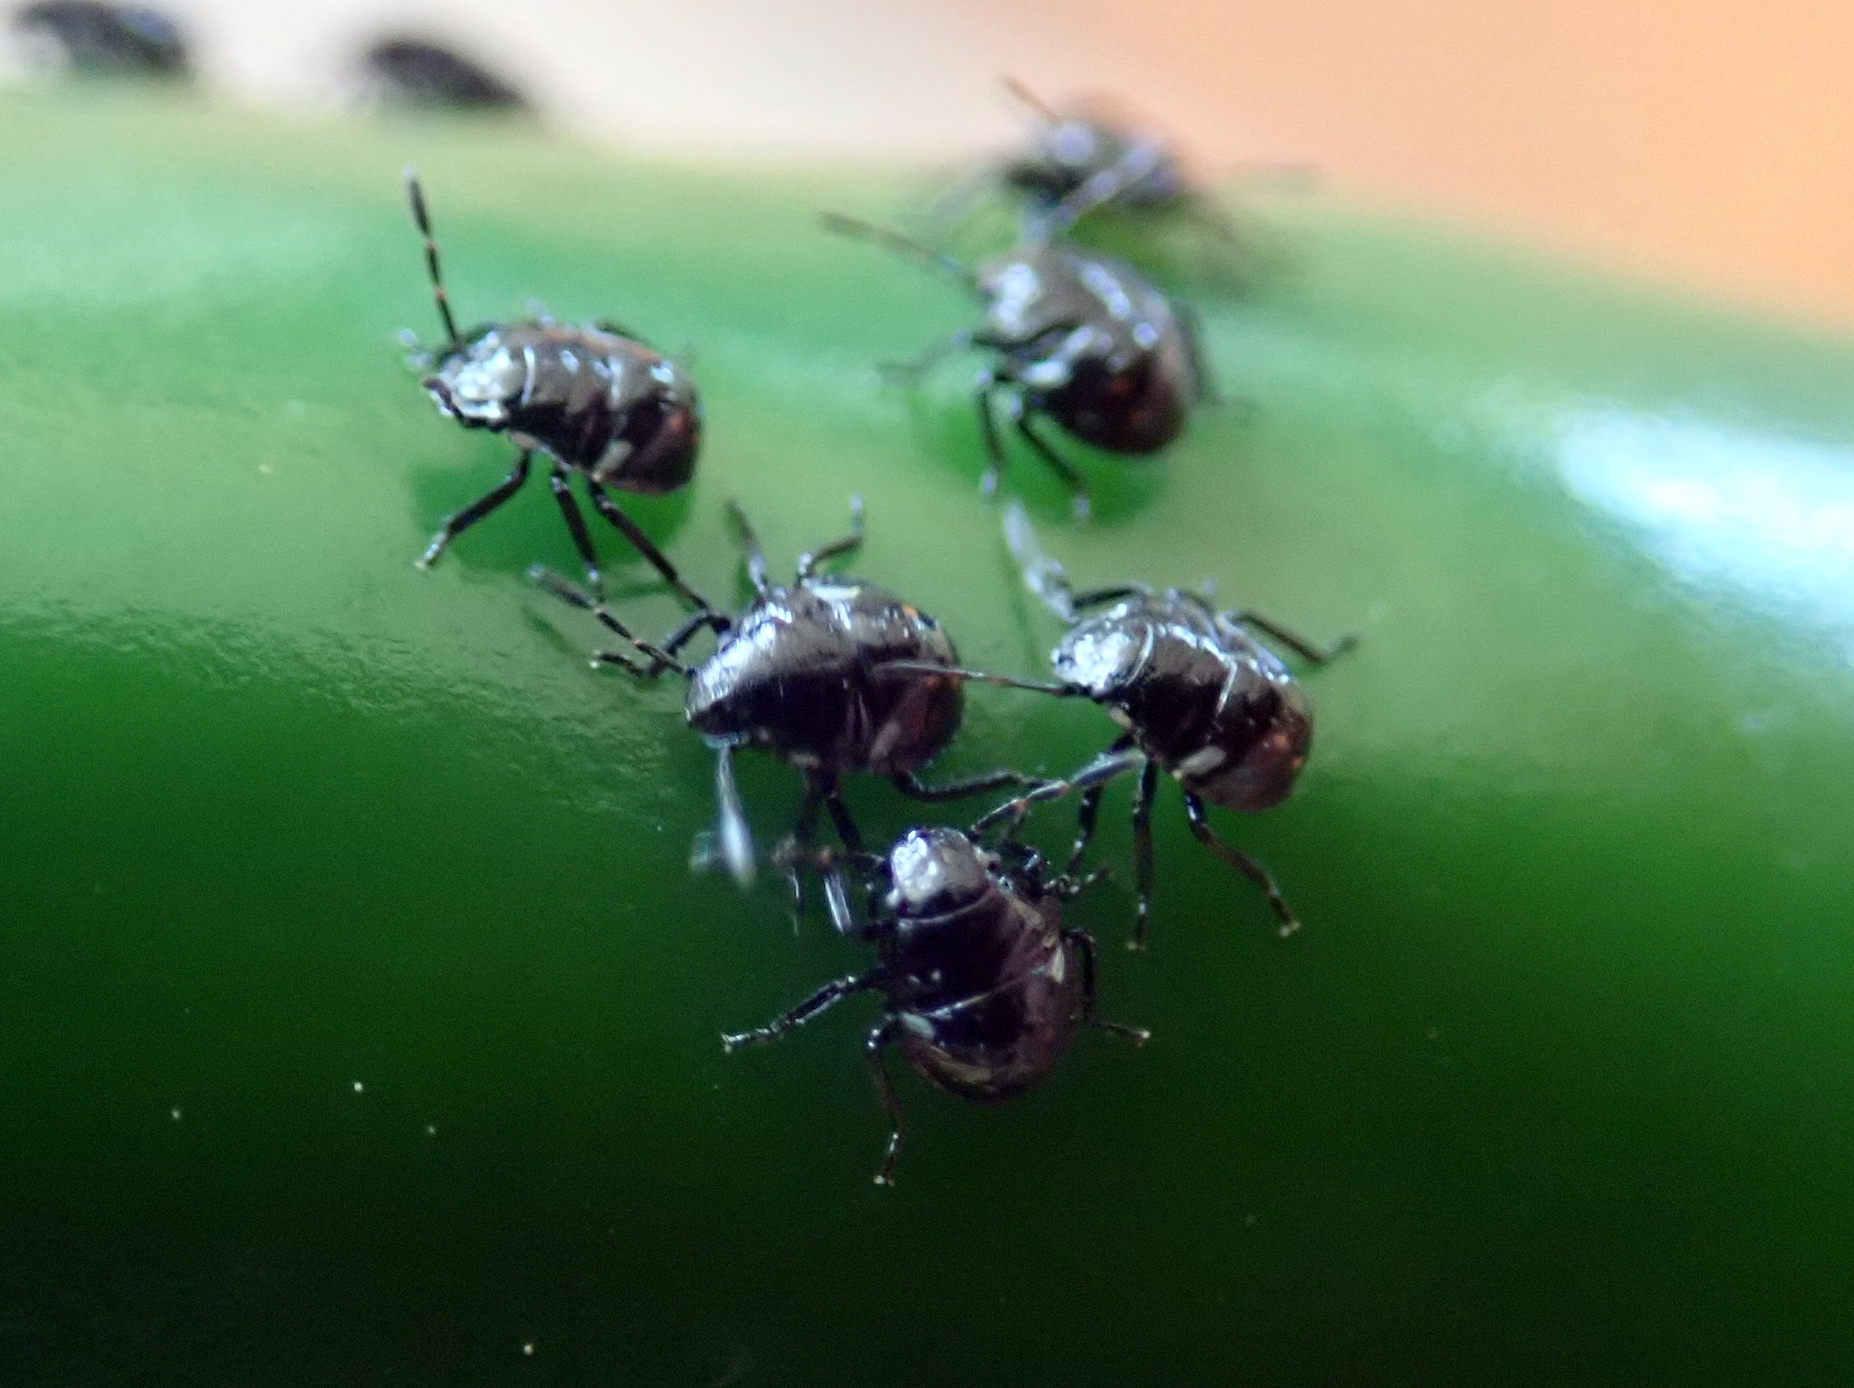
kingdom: Animalia
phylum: Arthropoda
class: Insecta
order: Hemiptera
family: Pentatomidae
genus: Nezara
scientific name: Nezara viridula
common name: Southern green stink bug
